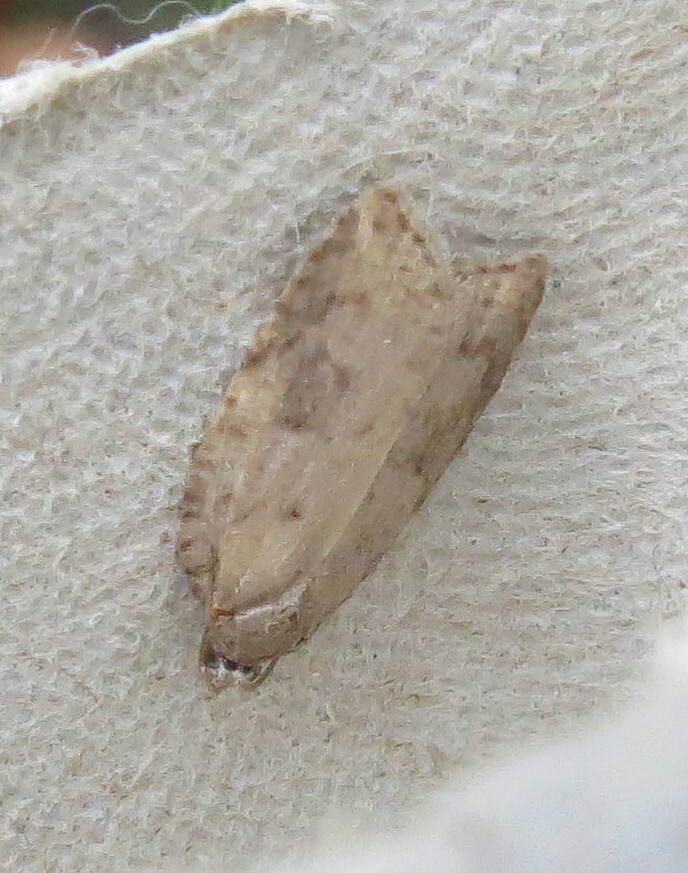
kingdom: Animalia
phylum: Arthropoda
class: Insecta
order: Lepidoptera
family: Tortricidae
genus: Acleris
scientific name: Acleris sparsana
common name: Ashy button
